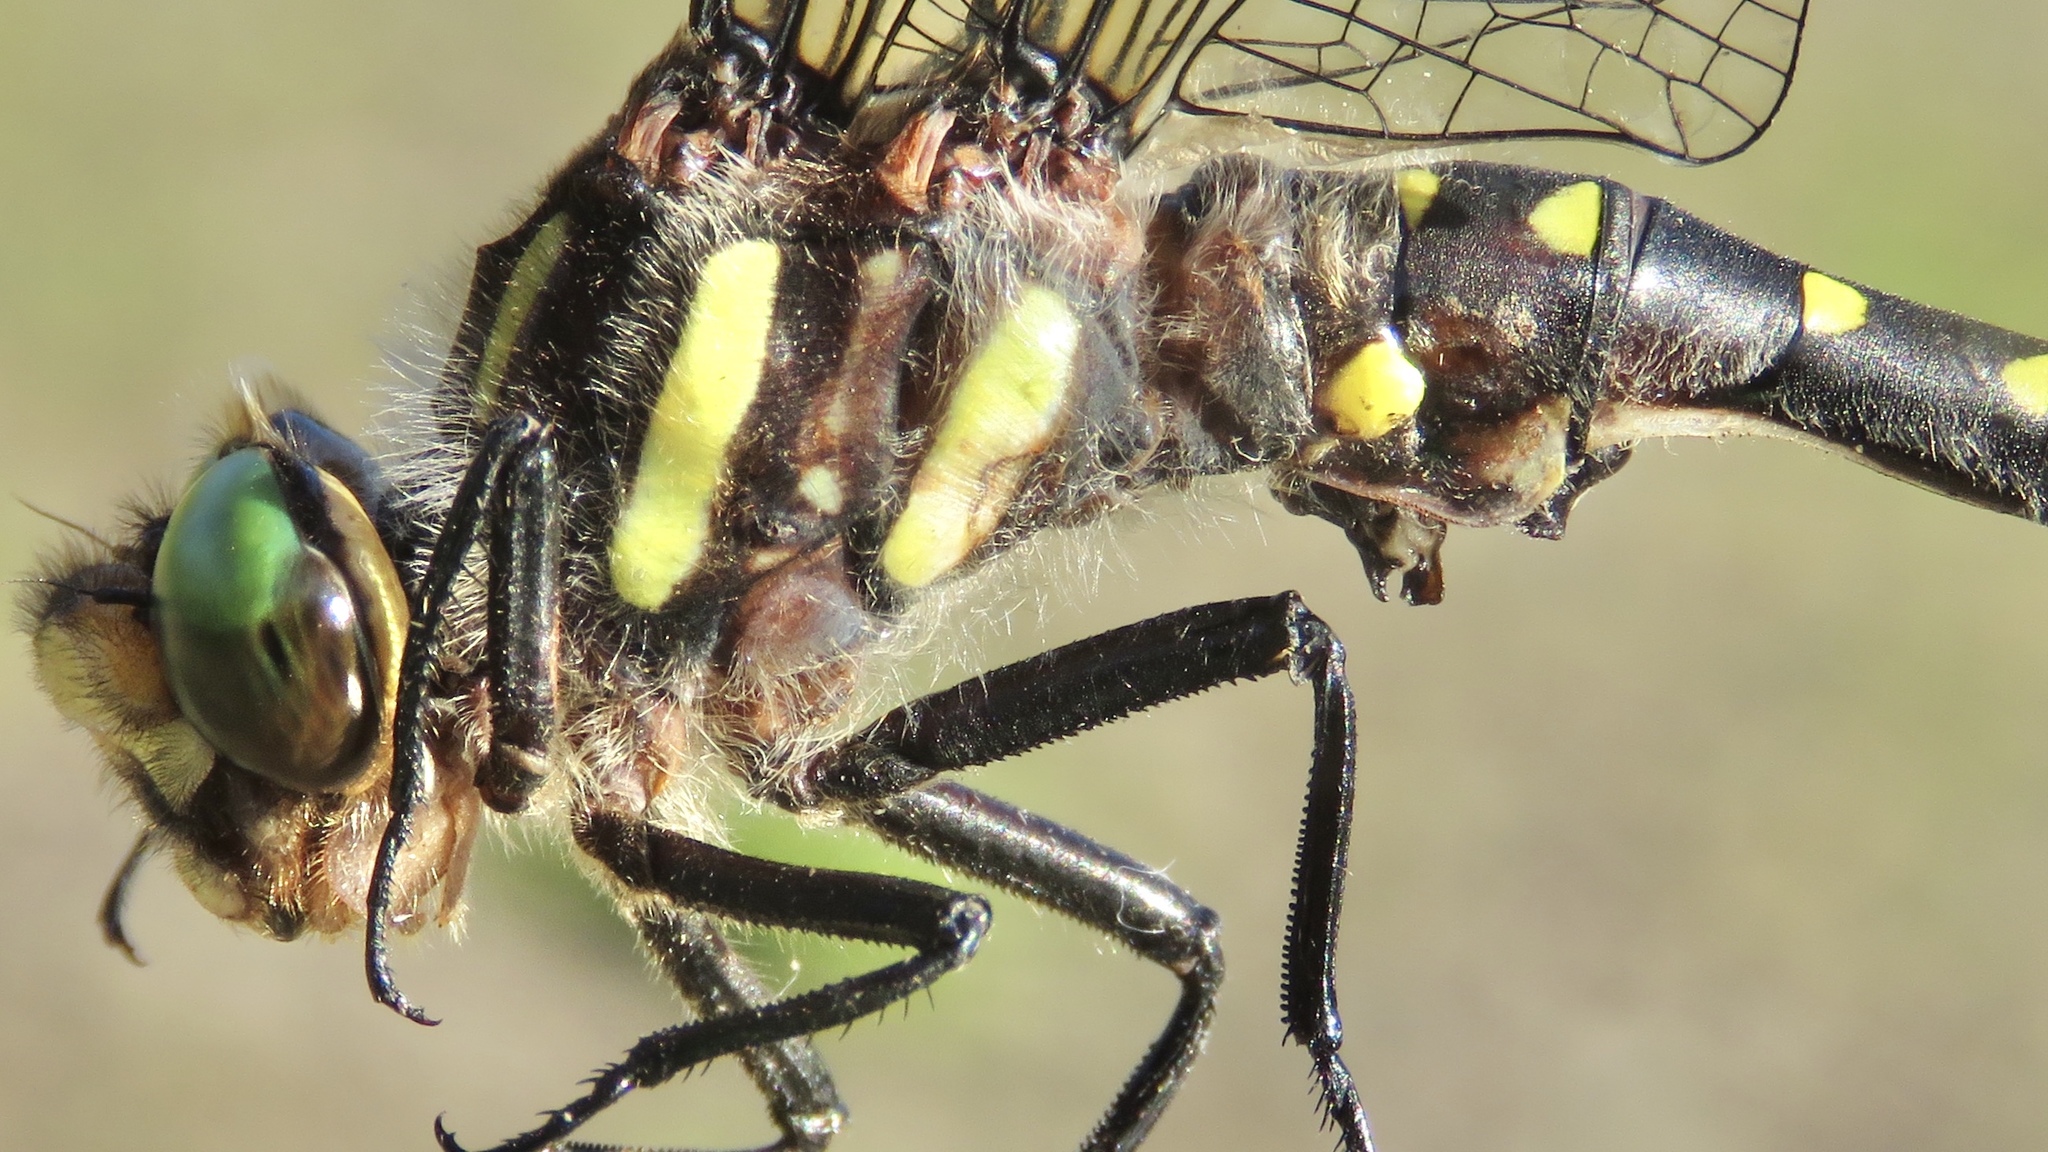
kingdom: Animalia
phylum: Arthropoda
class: Insecta
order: Odonata
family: Cordulegastridae
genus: Cordulegaster
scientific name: Cordulegaster maculata
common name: Twin-spotted spiketail
